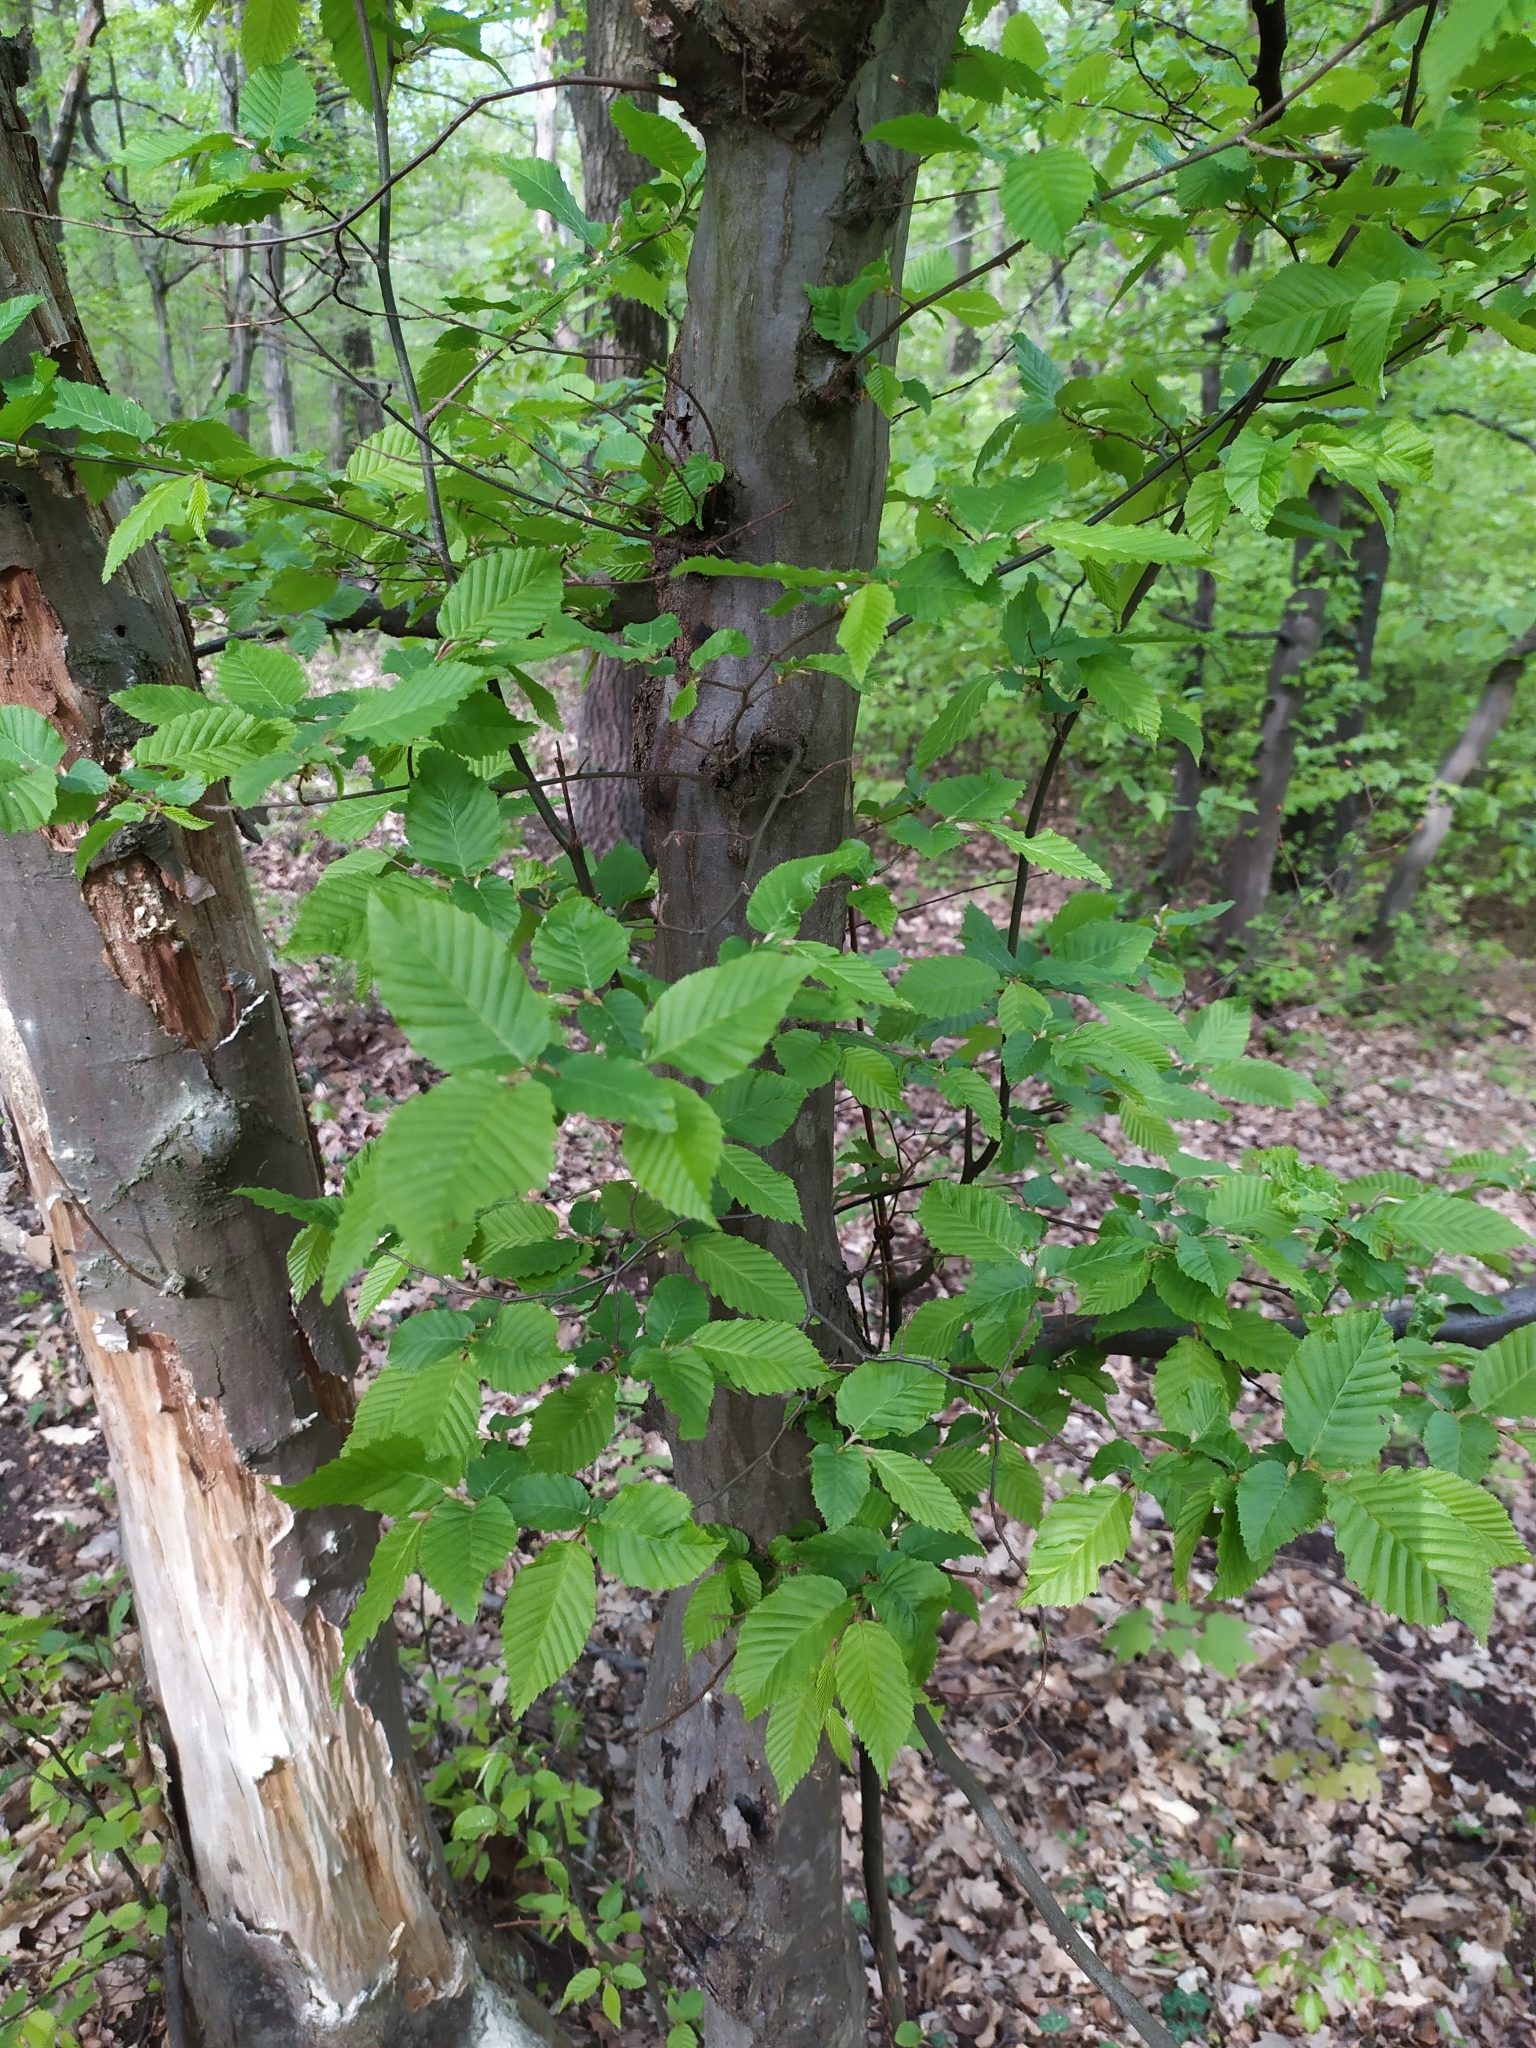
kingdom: Plantae
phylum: Tracheophyta
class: Magnoliopsida
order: Fagales
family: Betulaceae
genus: Carpinus
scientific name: Carpinus betulus
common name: Hornbeam
